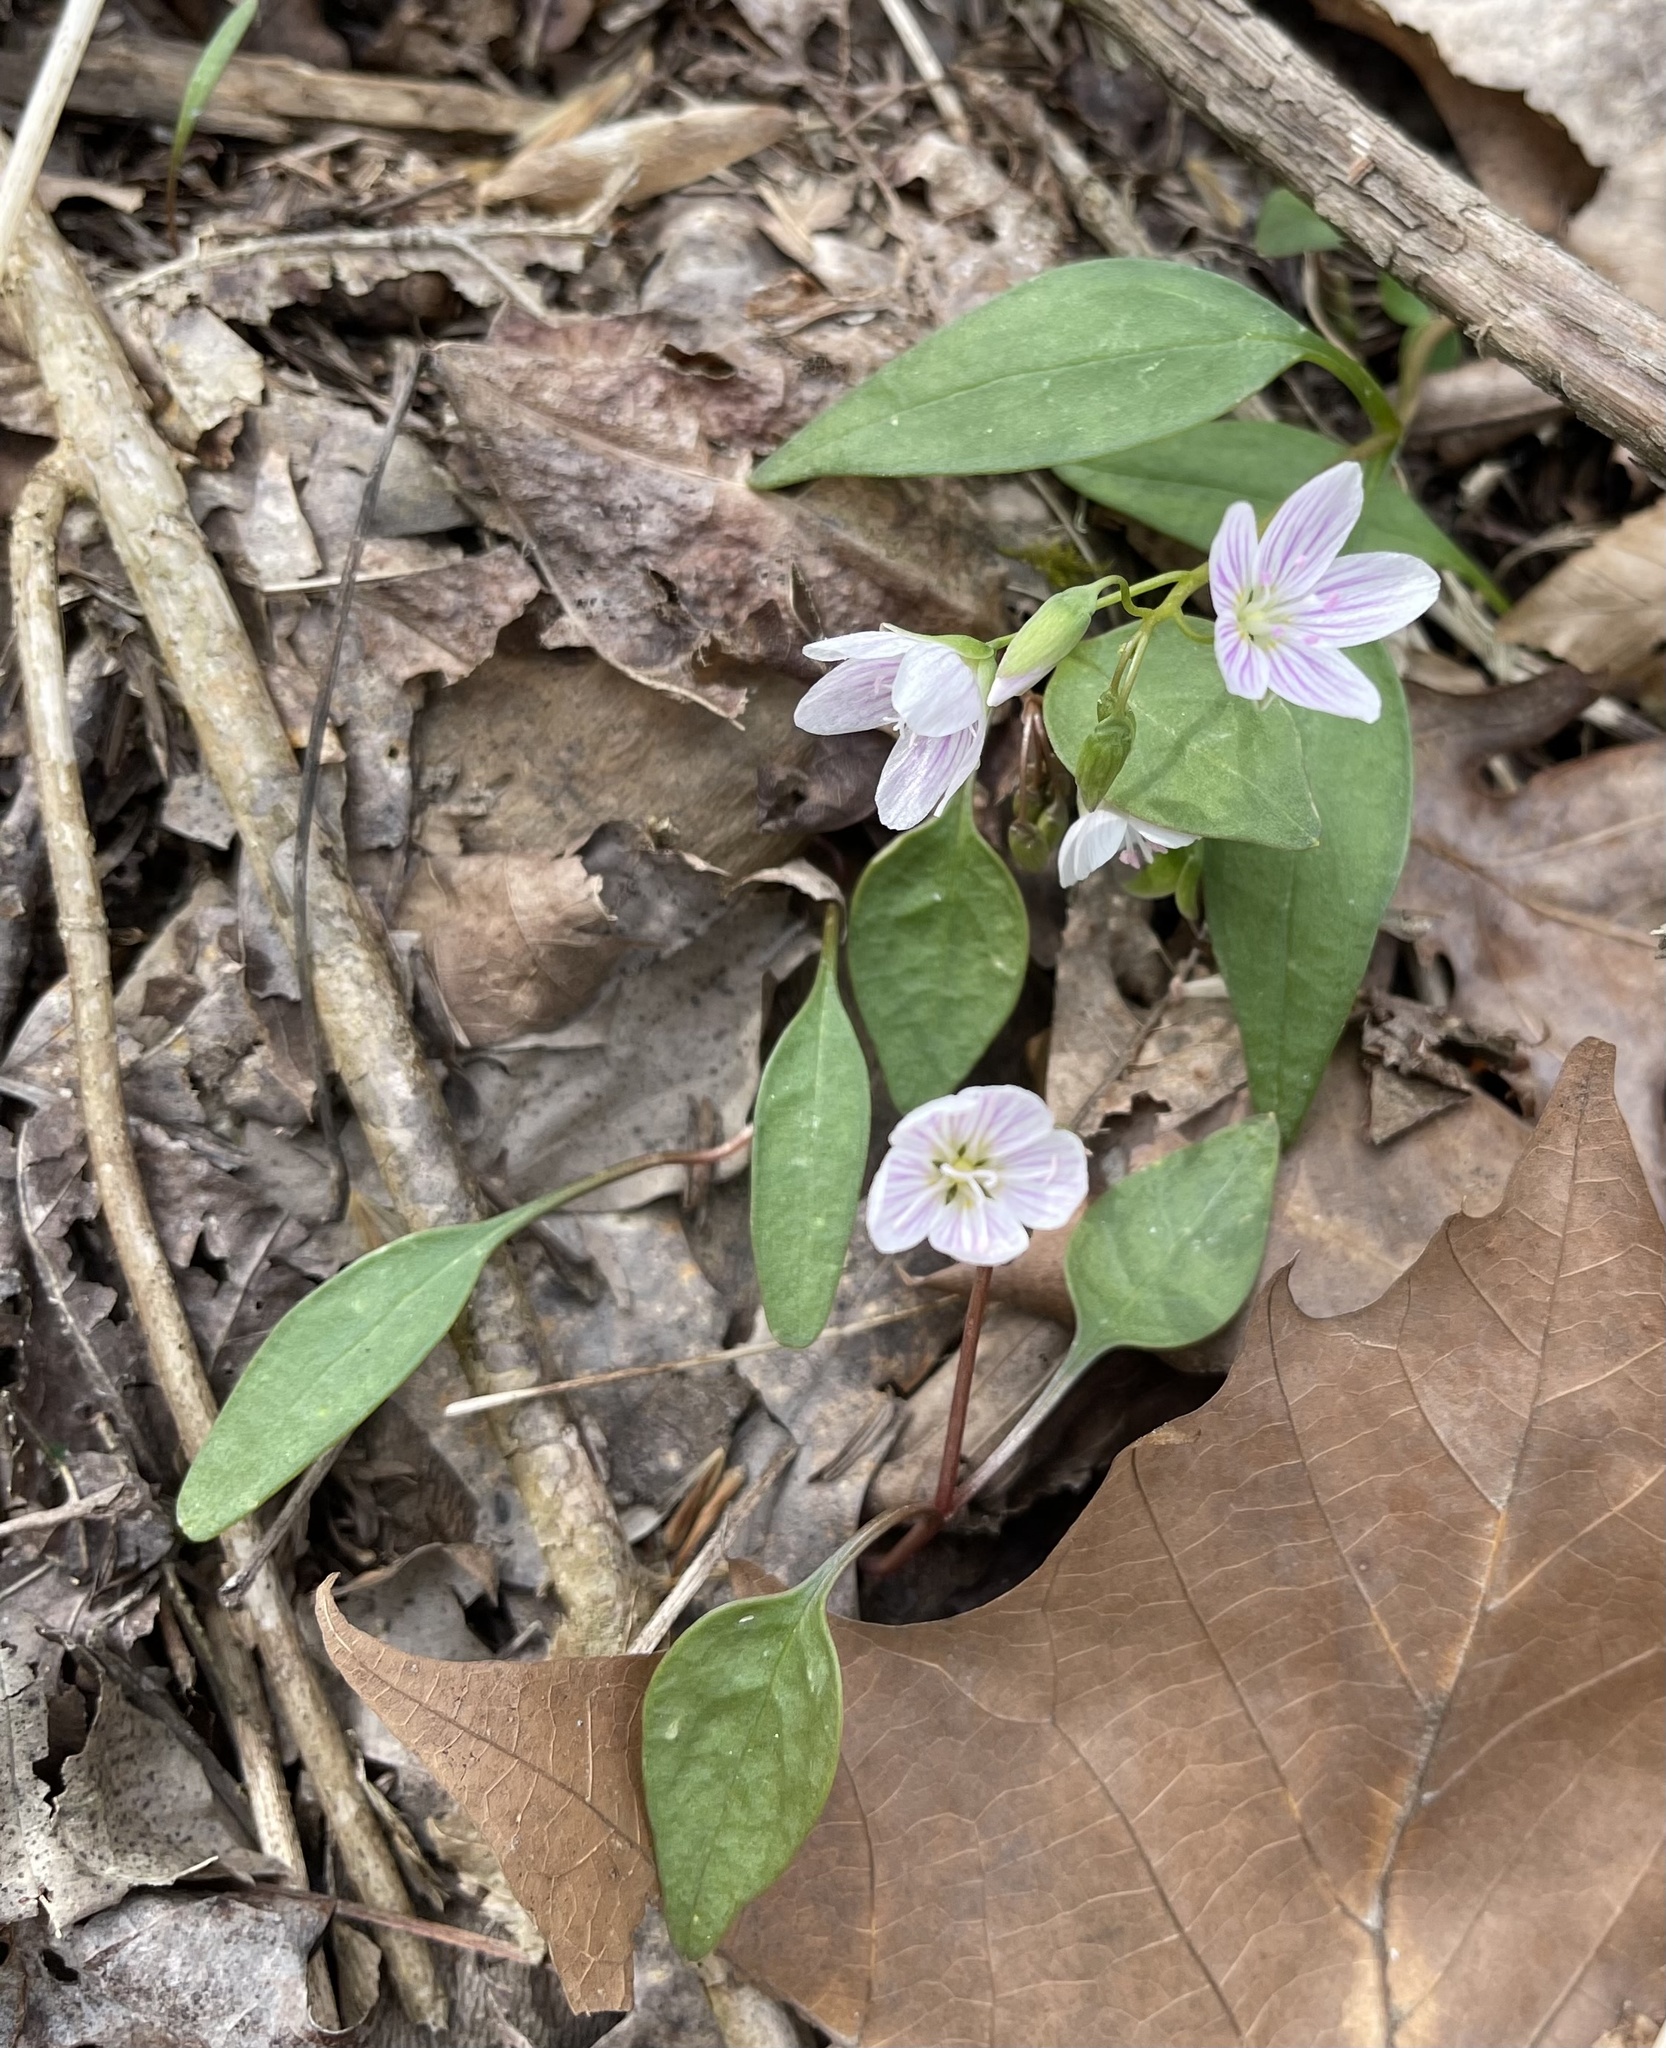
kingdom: Plantae
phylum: Tracheophyta
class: Magnoliopsida
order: Caryophyllales
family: Montiaceae
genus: Claytonia
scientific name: Claytonia caroliniana
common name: Carolina spring beauty
